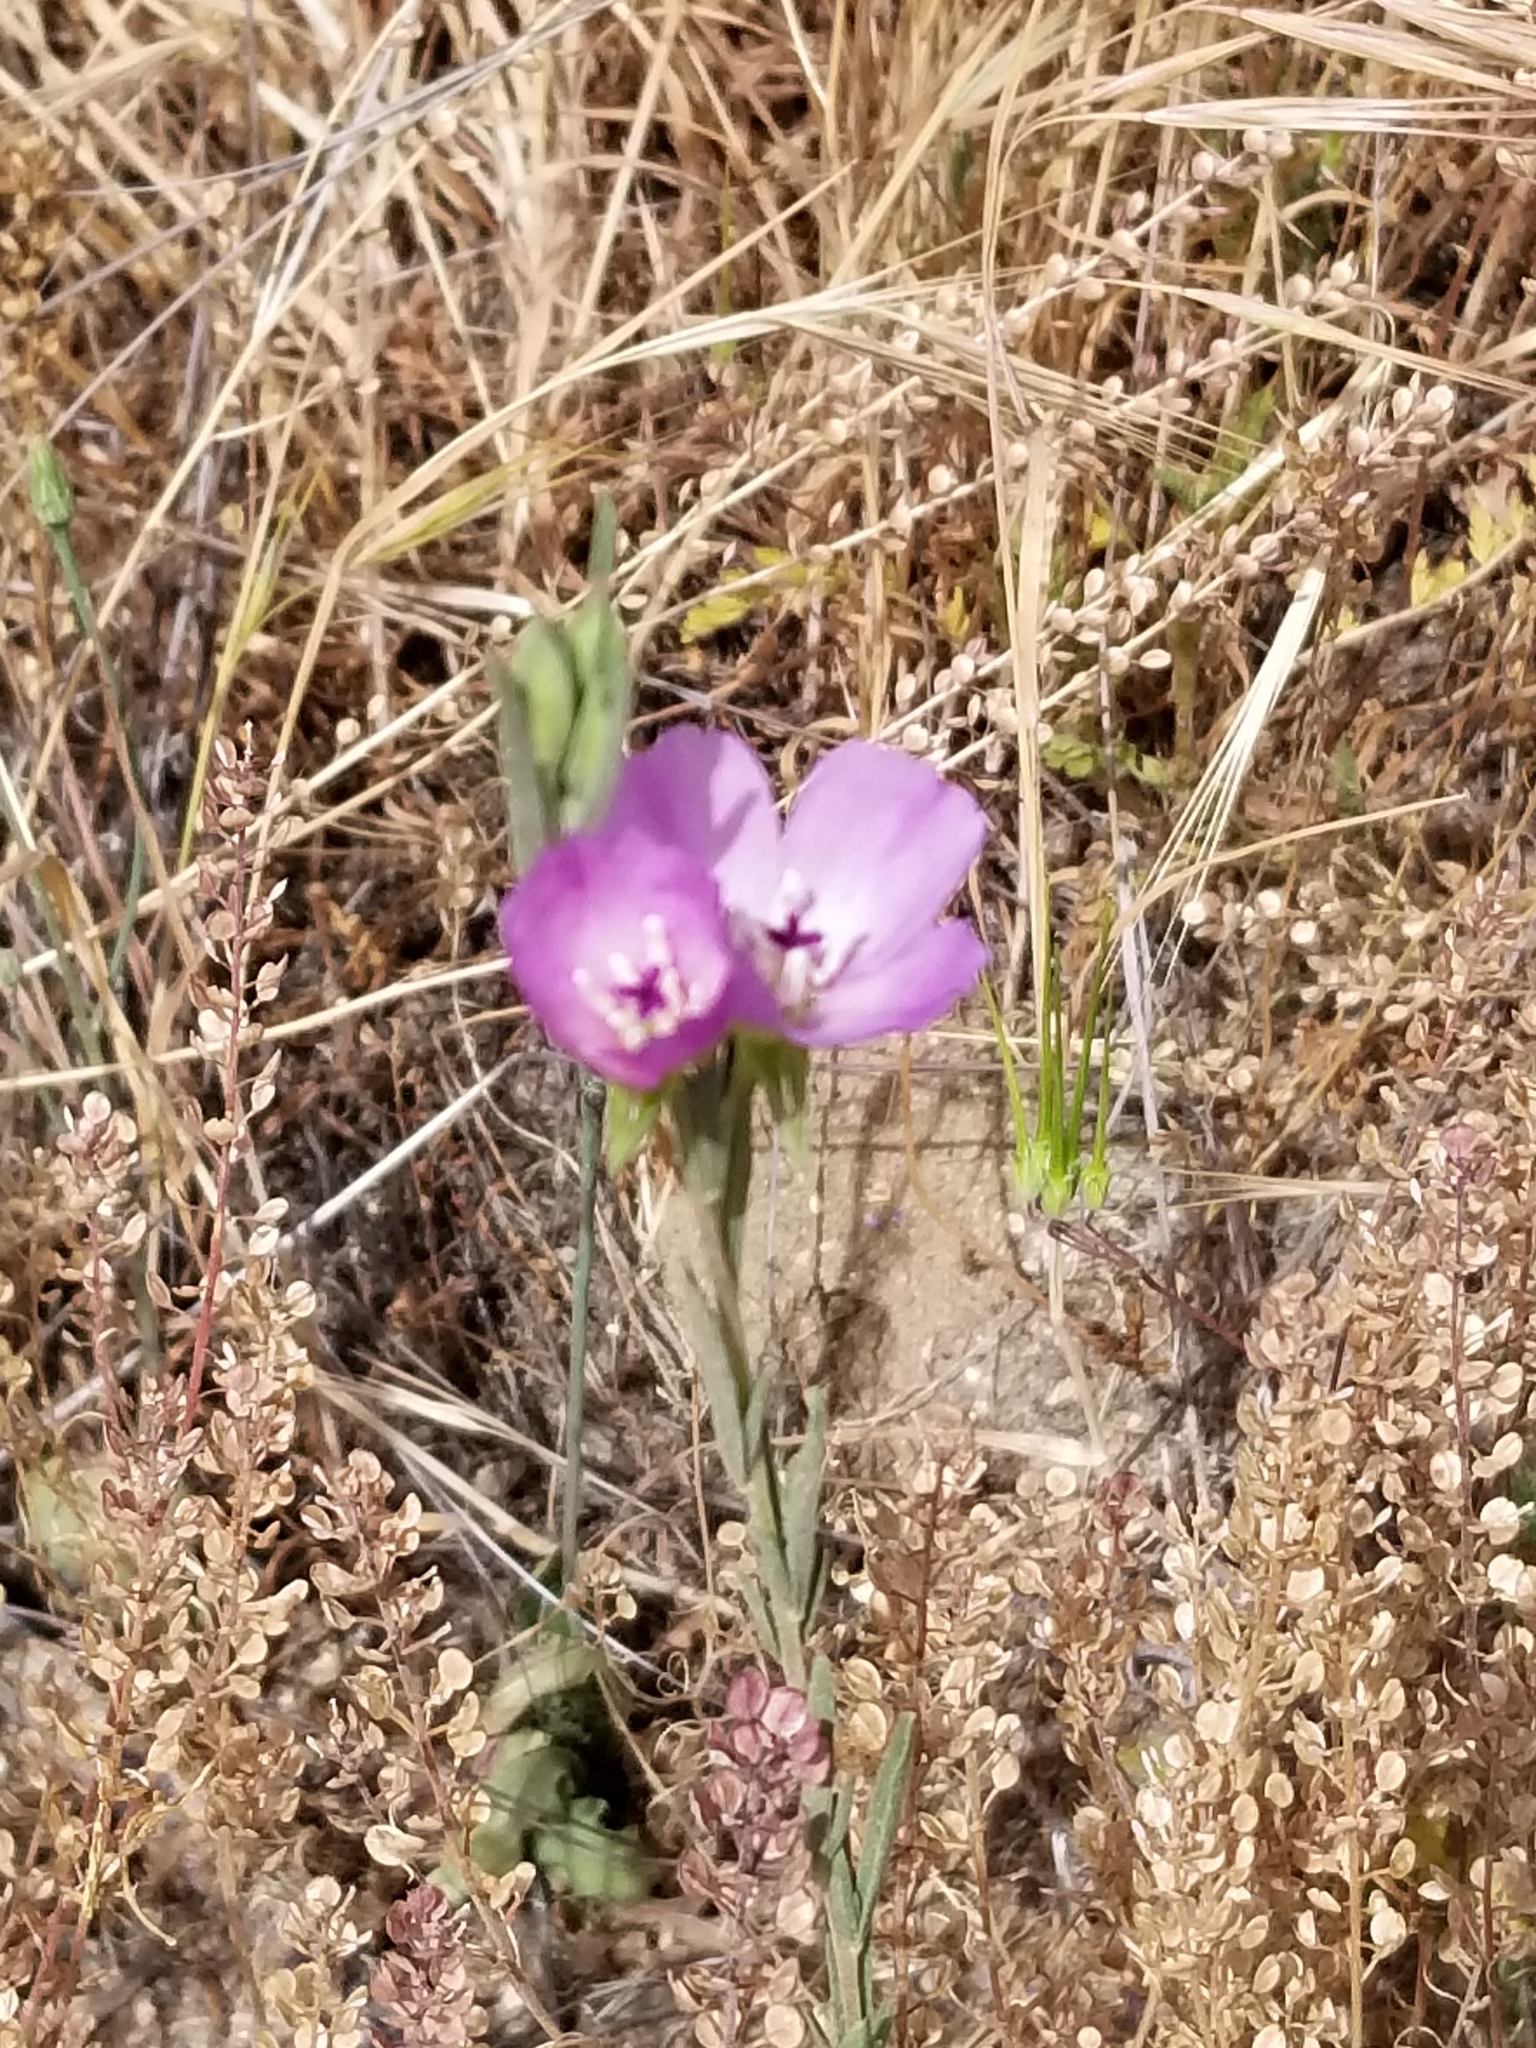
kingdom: Plantae
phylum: Tracheophyta
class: Magnoliopsida
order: Myrtales
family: Onagraceae
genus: Clarkia
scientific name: Clarkia purpurea
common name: Purple clarkia
